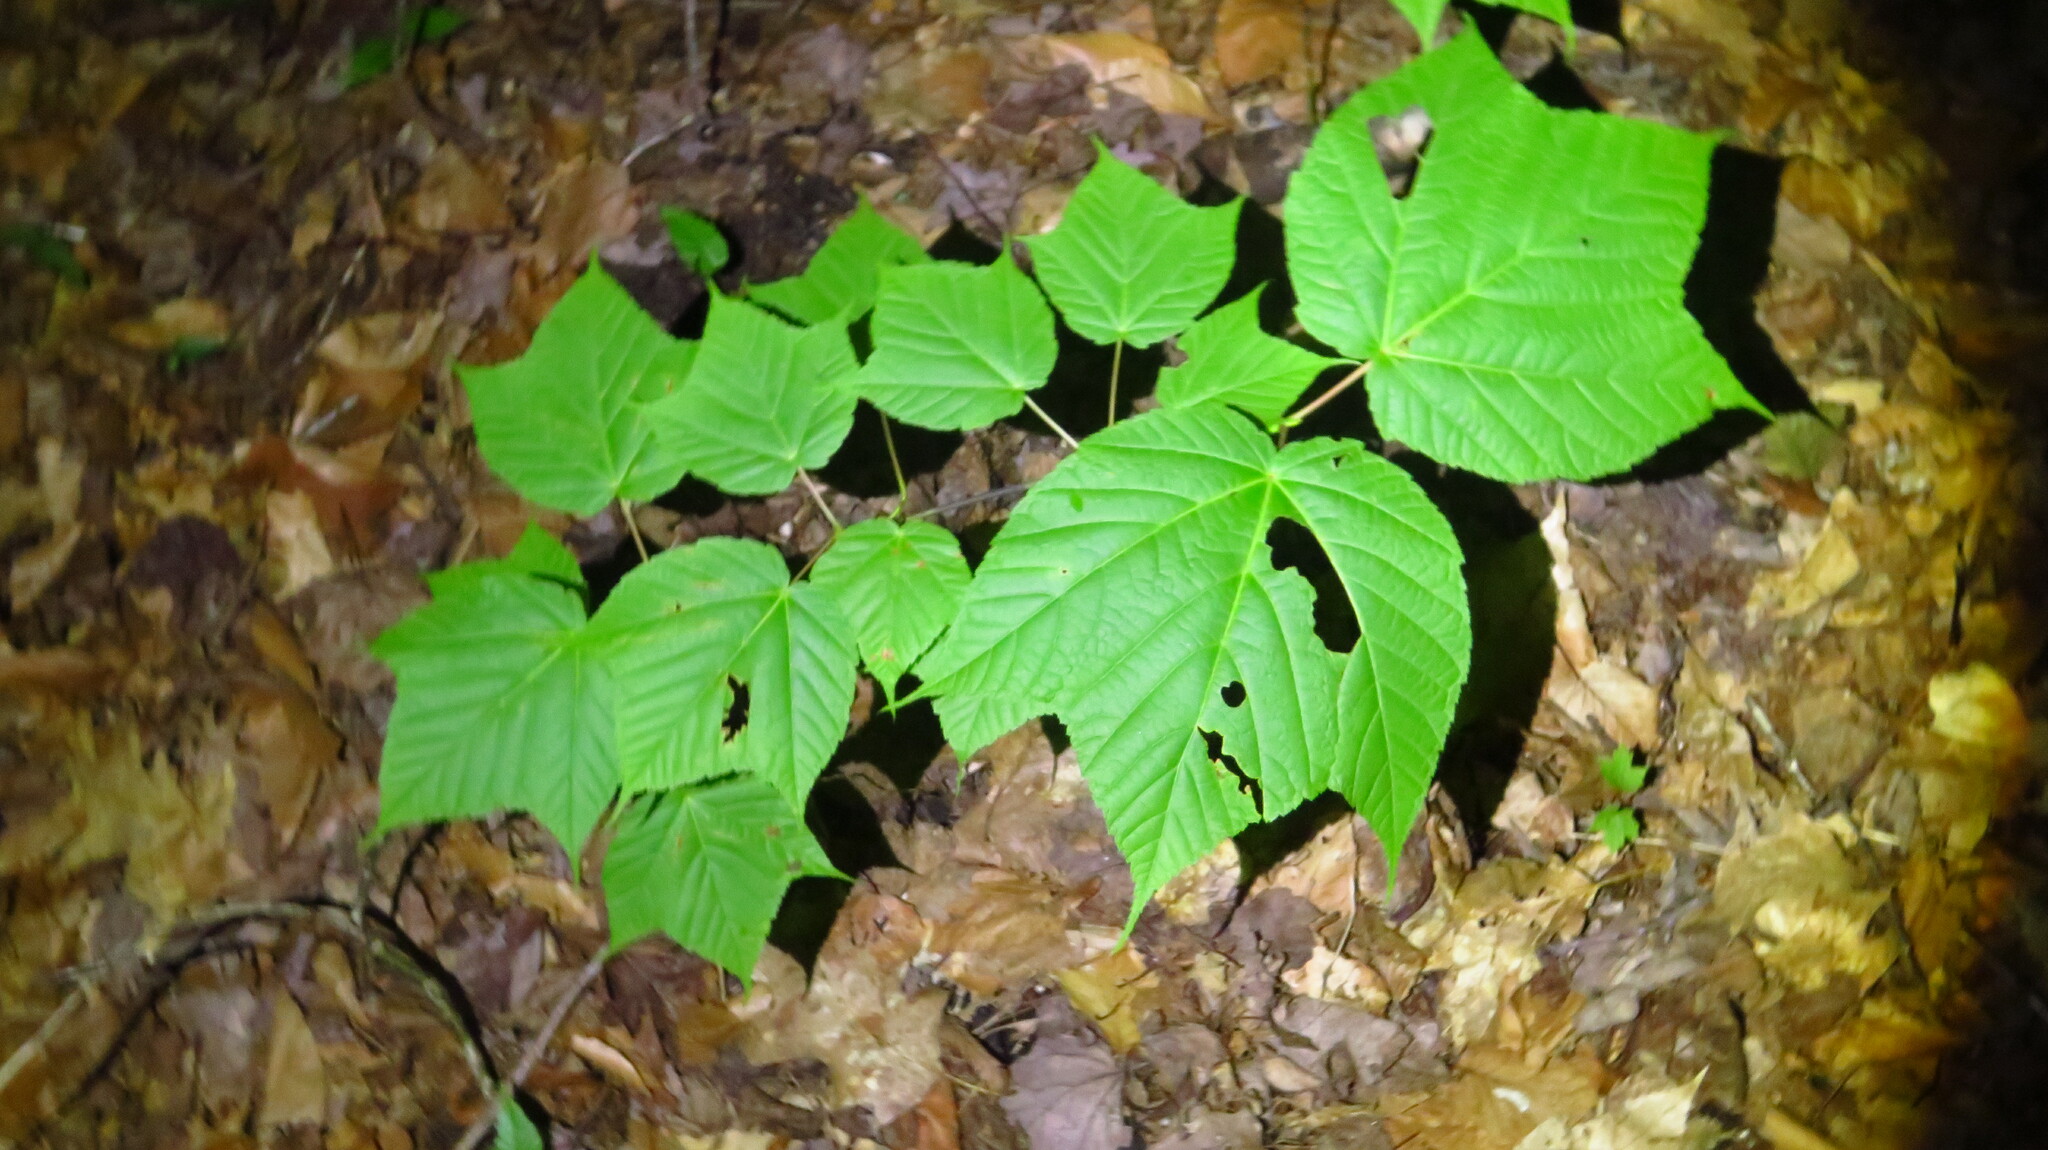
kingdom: Plantae
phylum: Tracheophyta
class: Magnoliopsida
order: Sapindales
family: Sapindaceae
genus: Acer
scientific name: Acer pensylvanicum
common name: Moosewood
